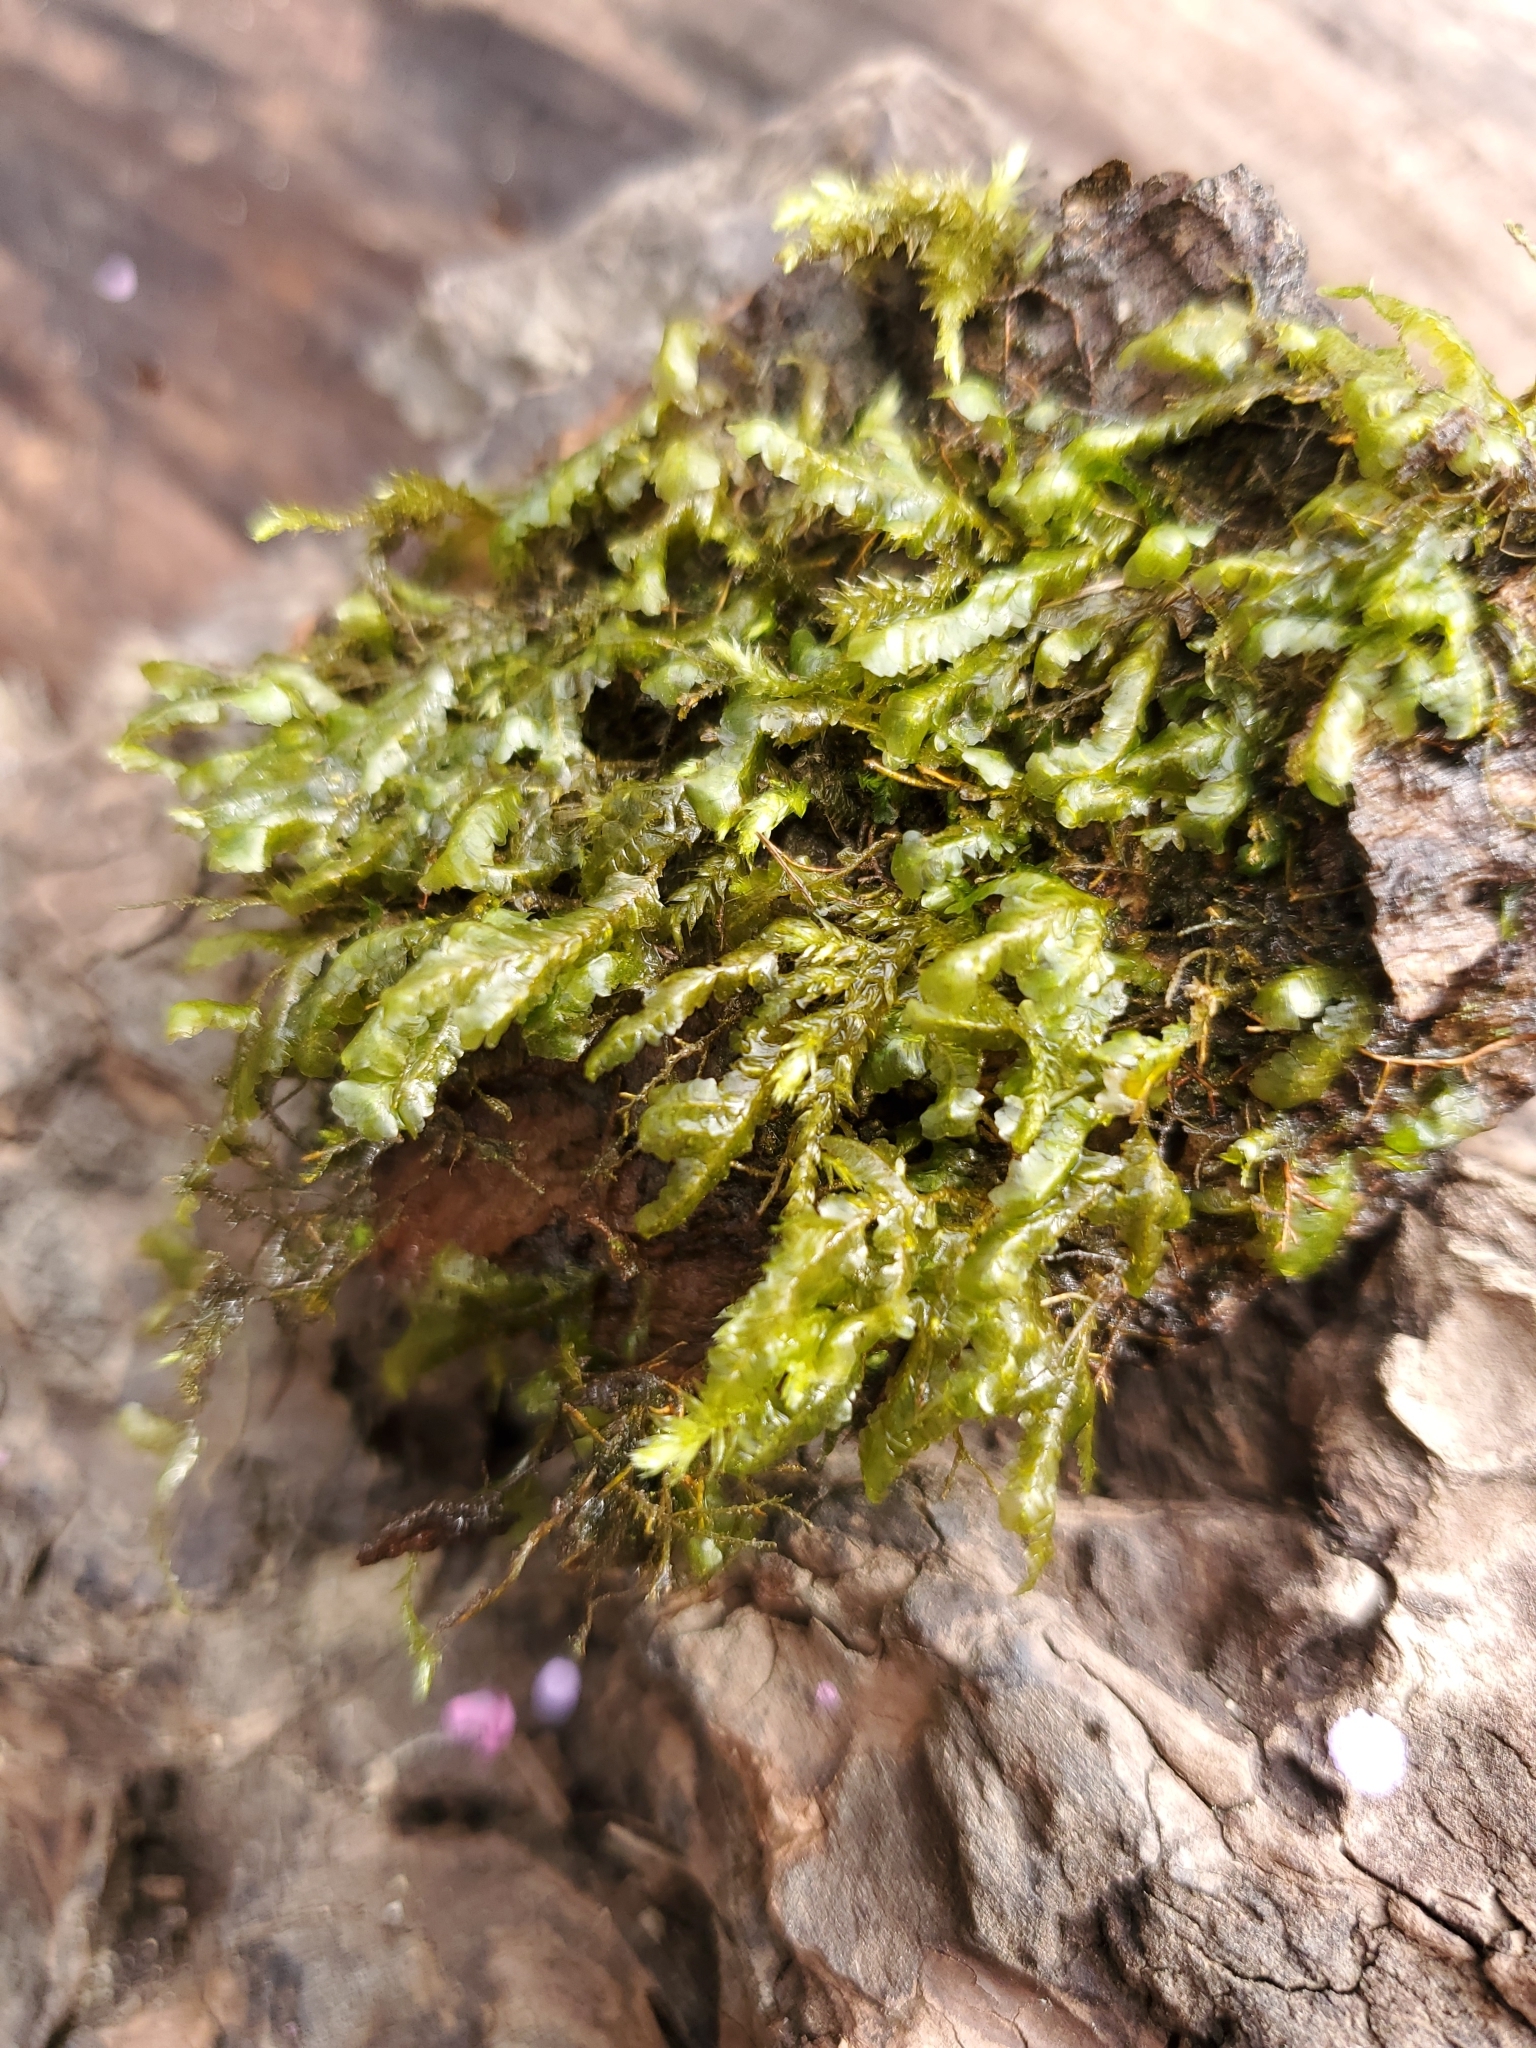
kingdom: Plantae
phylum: Bryophyta
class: Bryopsida
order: Hypnales
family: Neckeraceae
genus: Homalia
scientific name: Homalia trichomanoides
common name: Lime homalia moss
